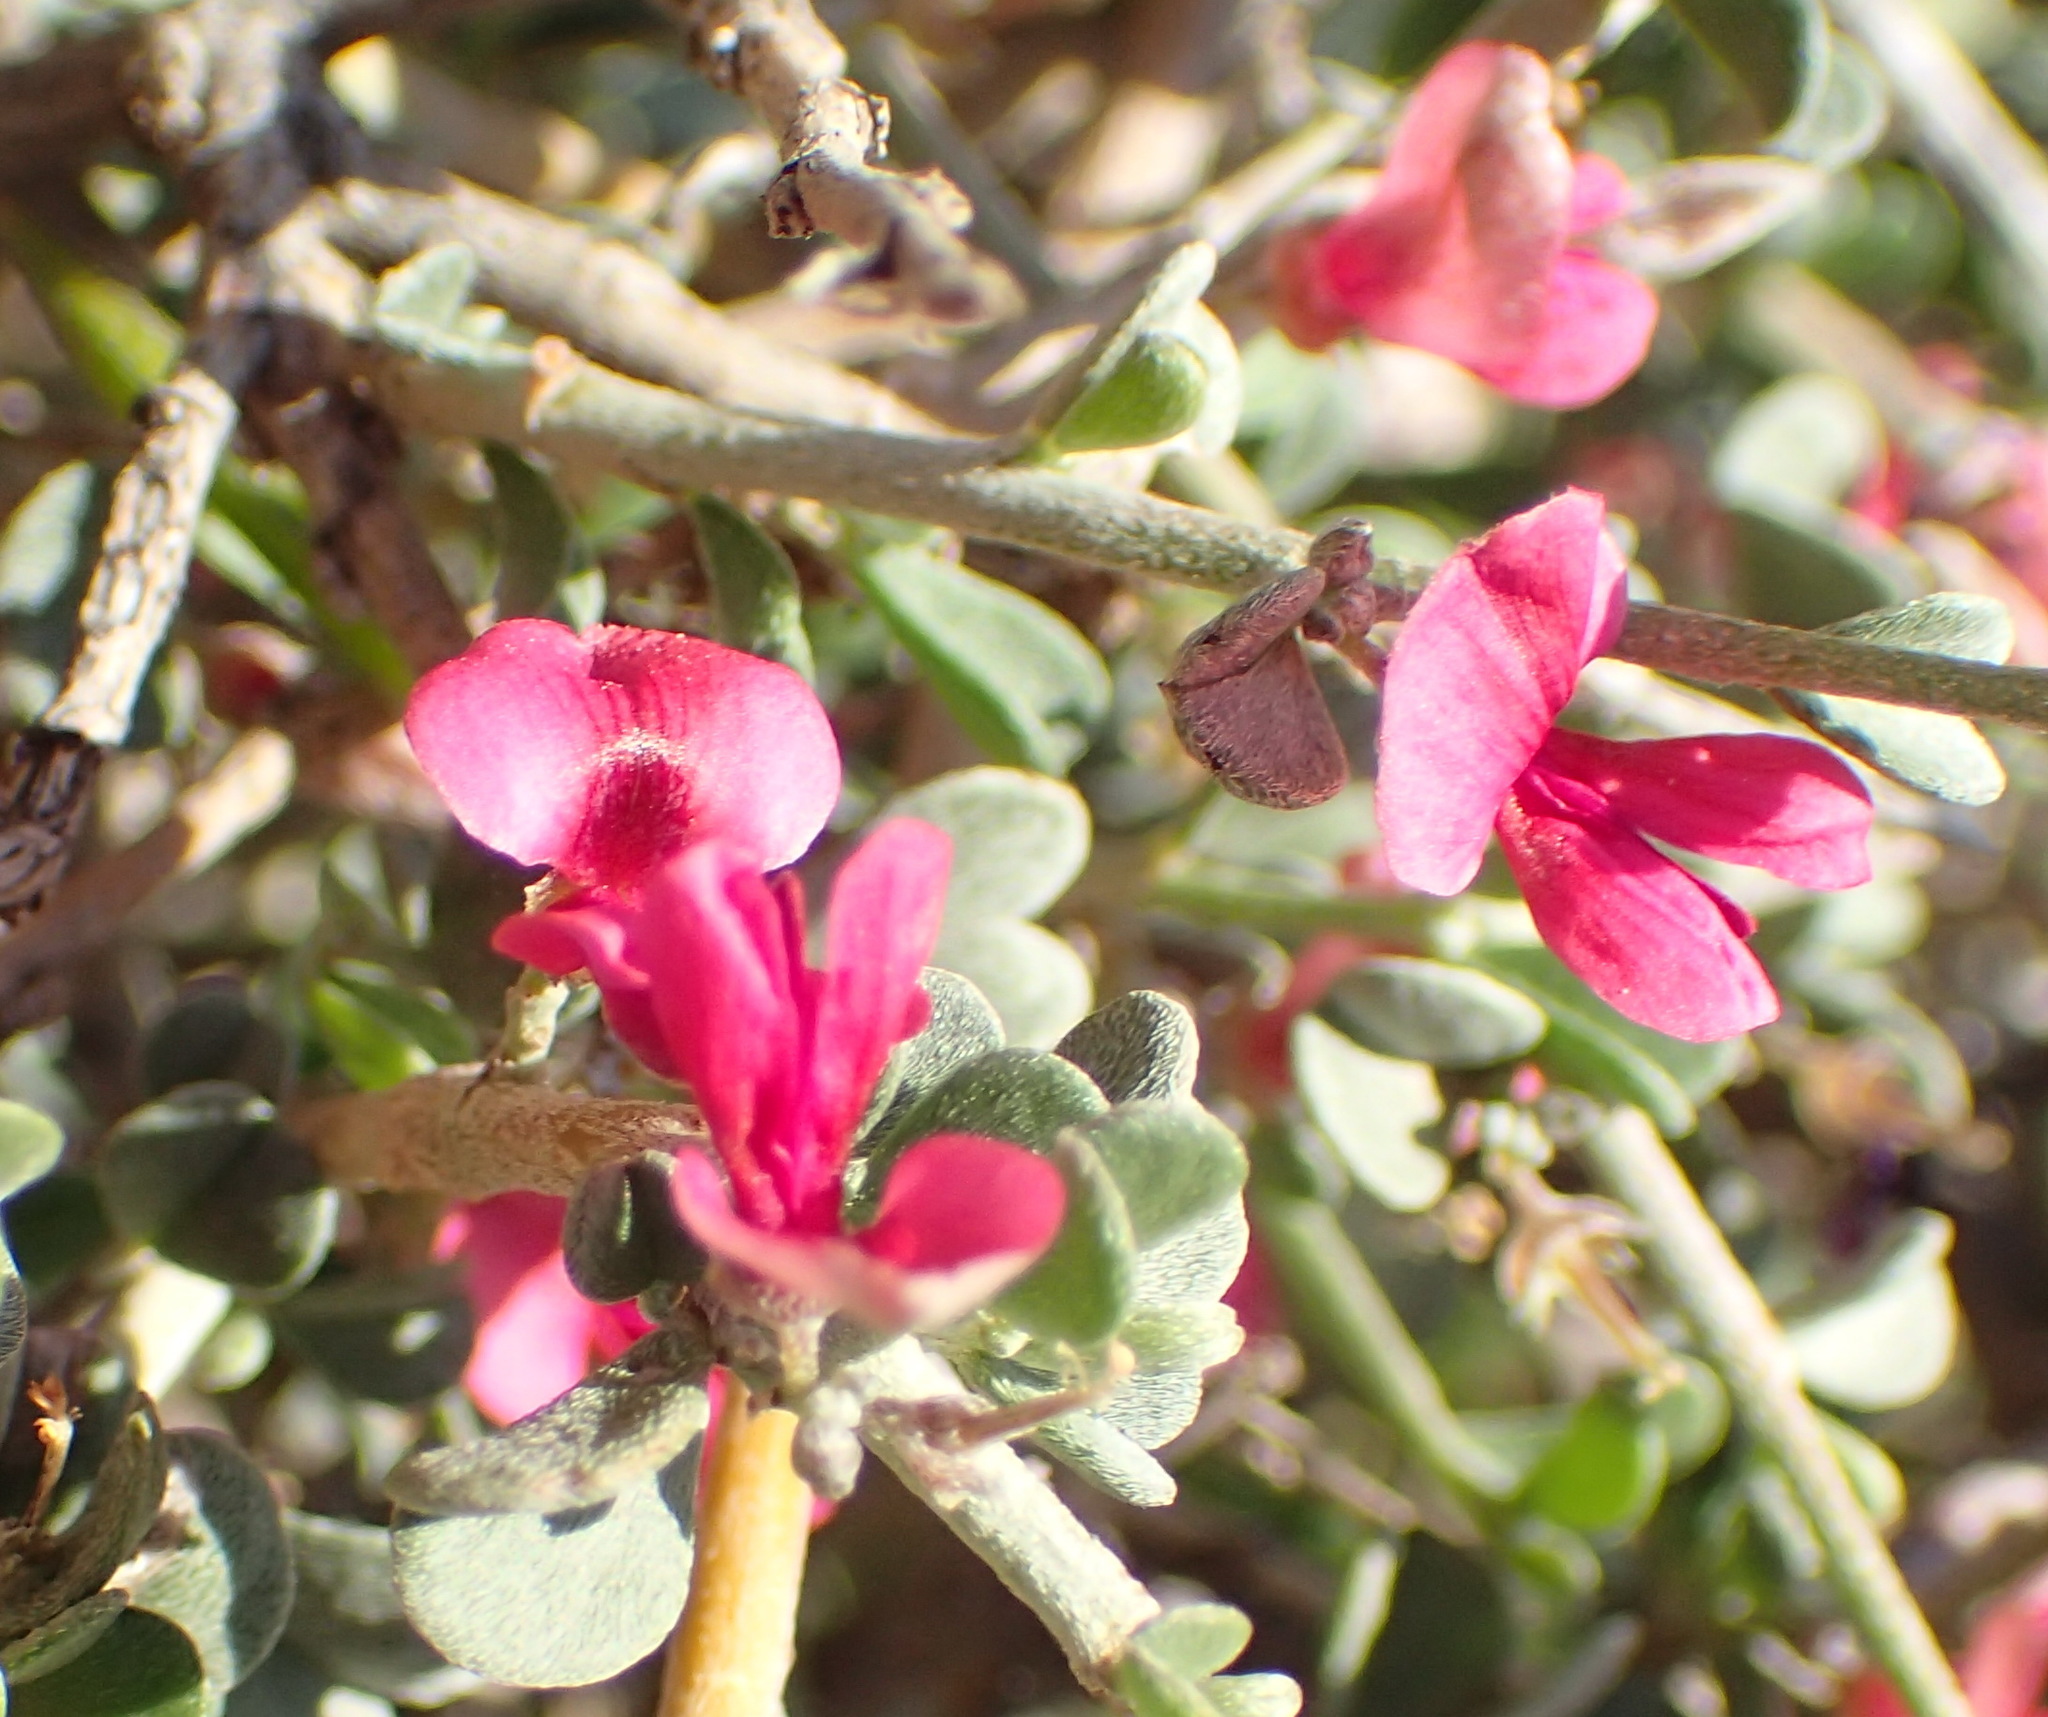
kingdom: Plantae
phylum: Tracheophyta
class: Magnoliopsida
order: Fabales
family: Fabaceae
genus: Indigofera
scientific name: Indigofera obcordata
